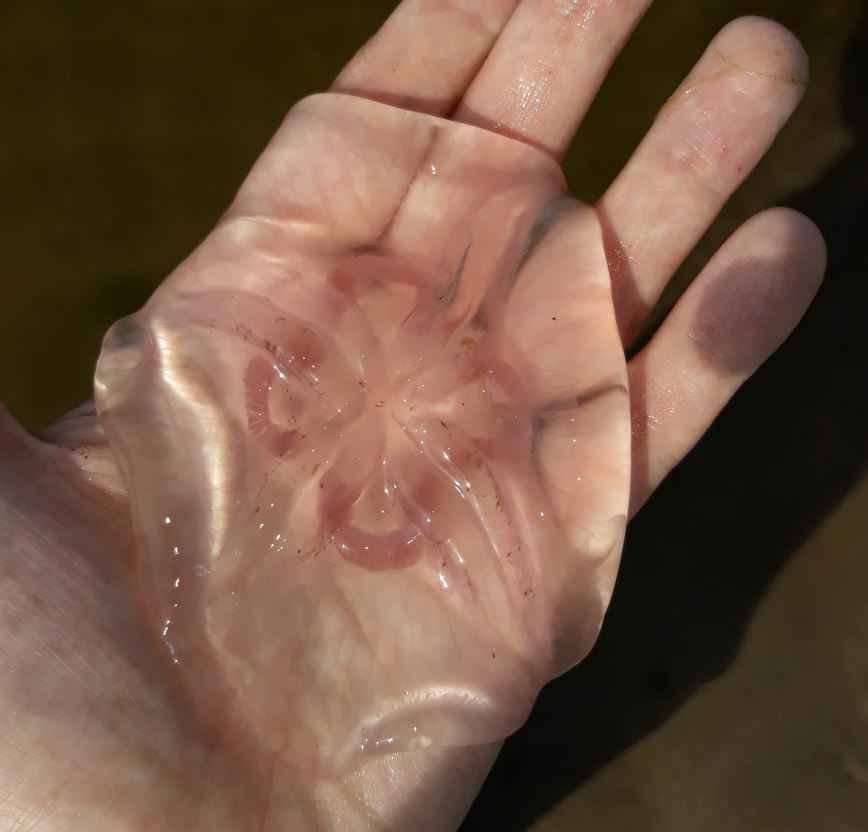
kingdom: Animalia
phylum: Cnidaria
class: Scyphozoa
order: Semaeostomeae
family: Ulmaridae
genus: Aurelia
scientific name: Aurelia aurita
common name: Moon jellyfish
